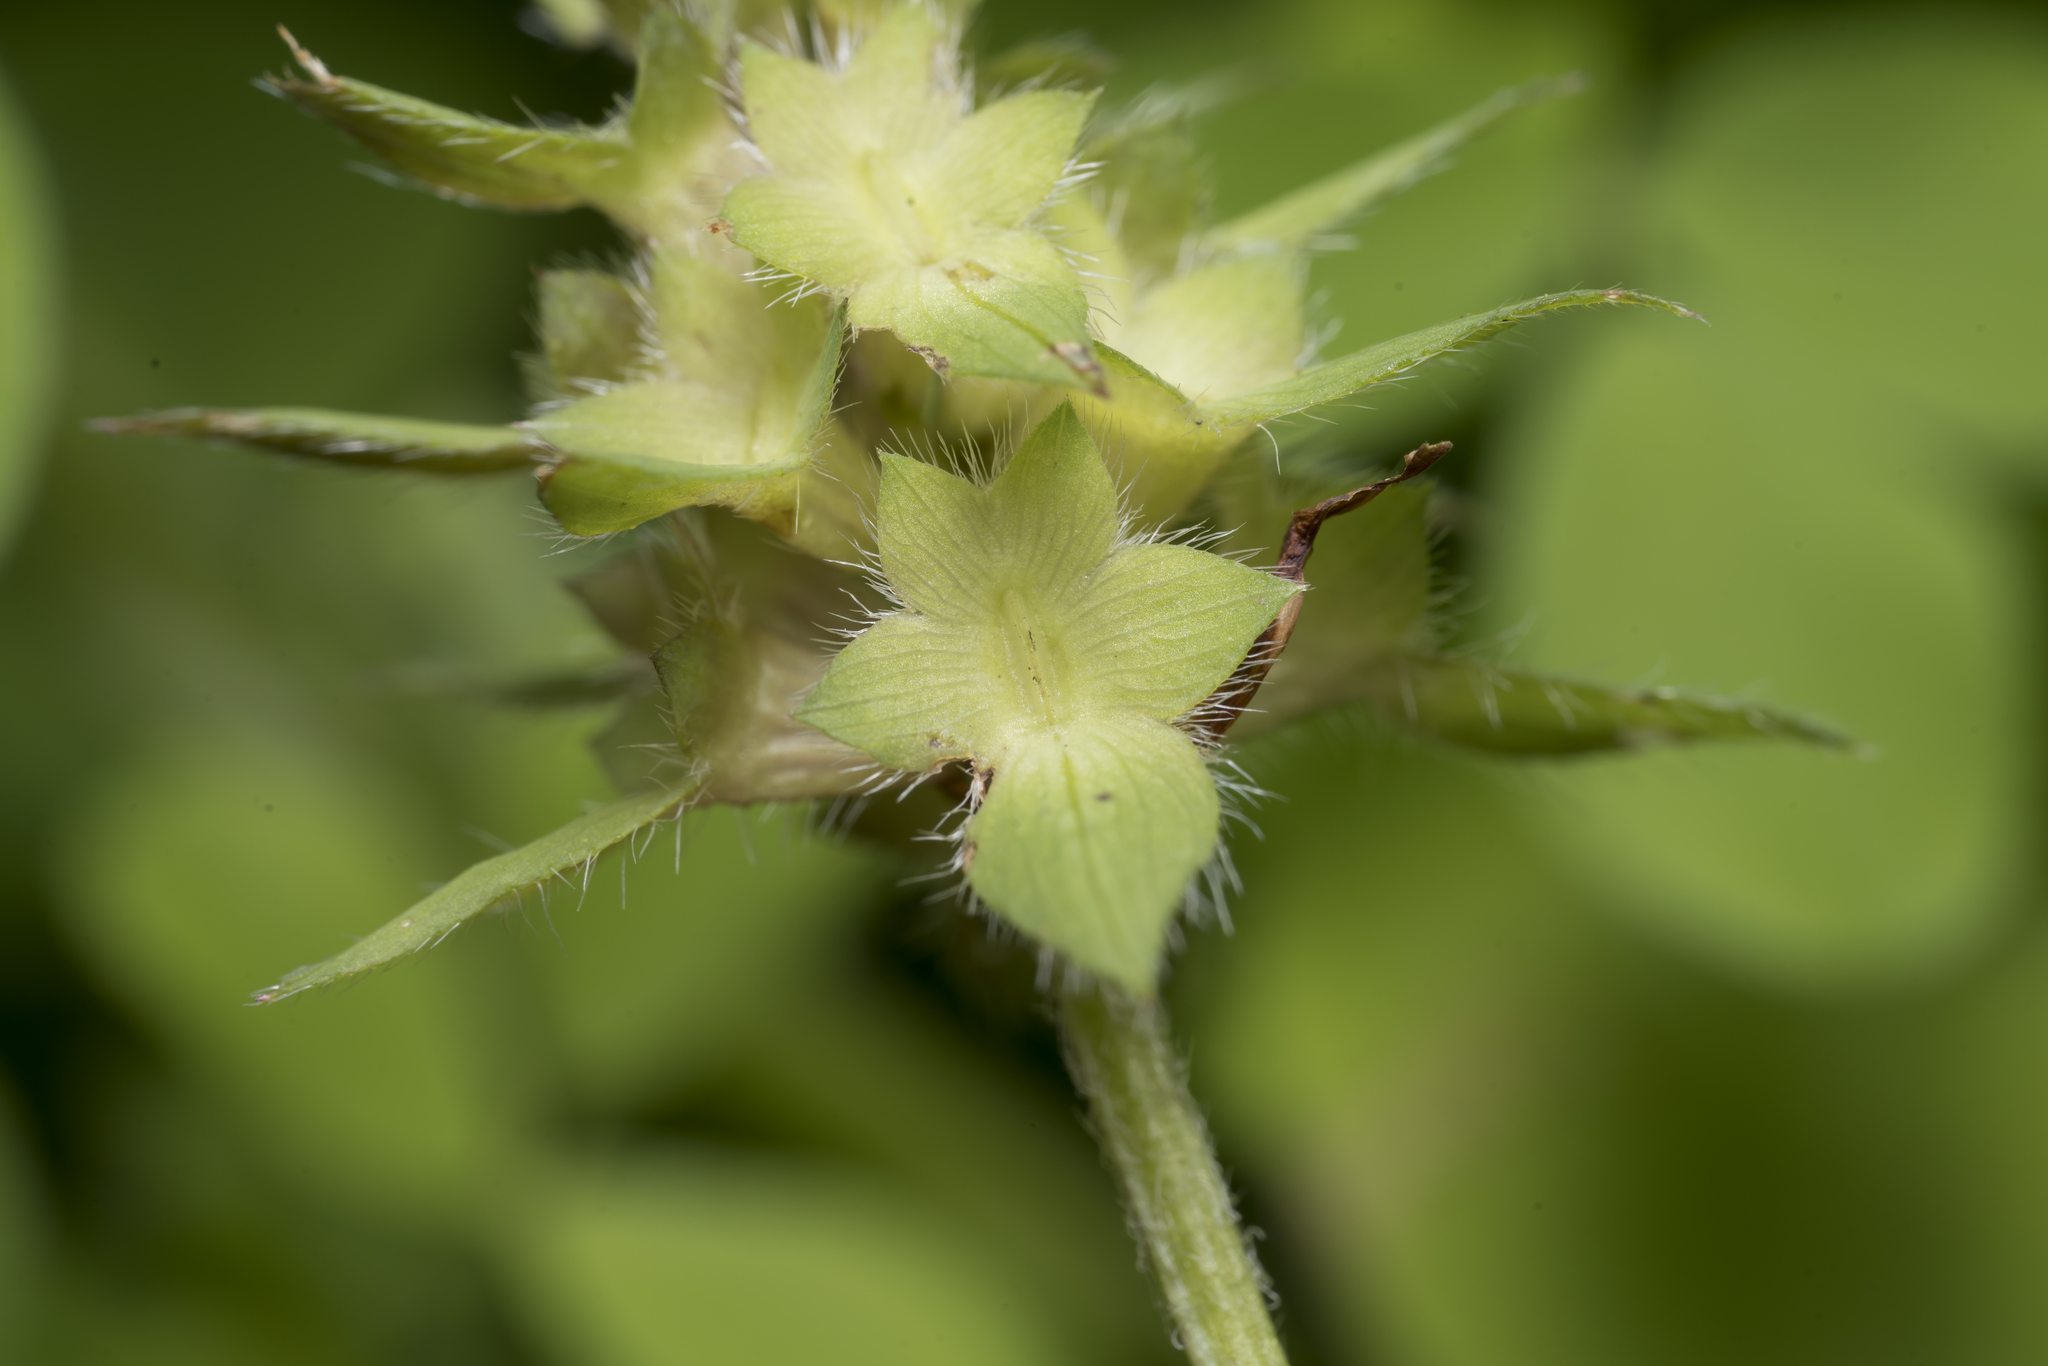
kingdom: Plantae
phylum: Tracheophyta
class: Magnoliopsida
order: Fabales
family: Fabaceae
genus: Trifolium
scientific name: Trifolium clypeatum
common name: Shield clover
